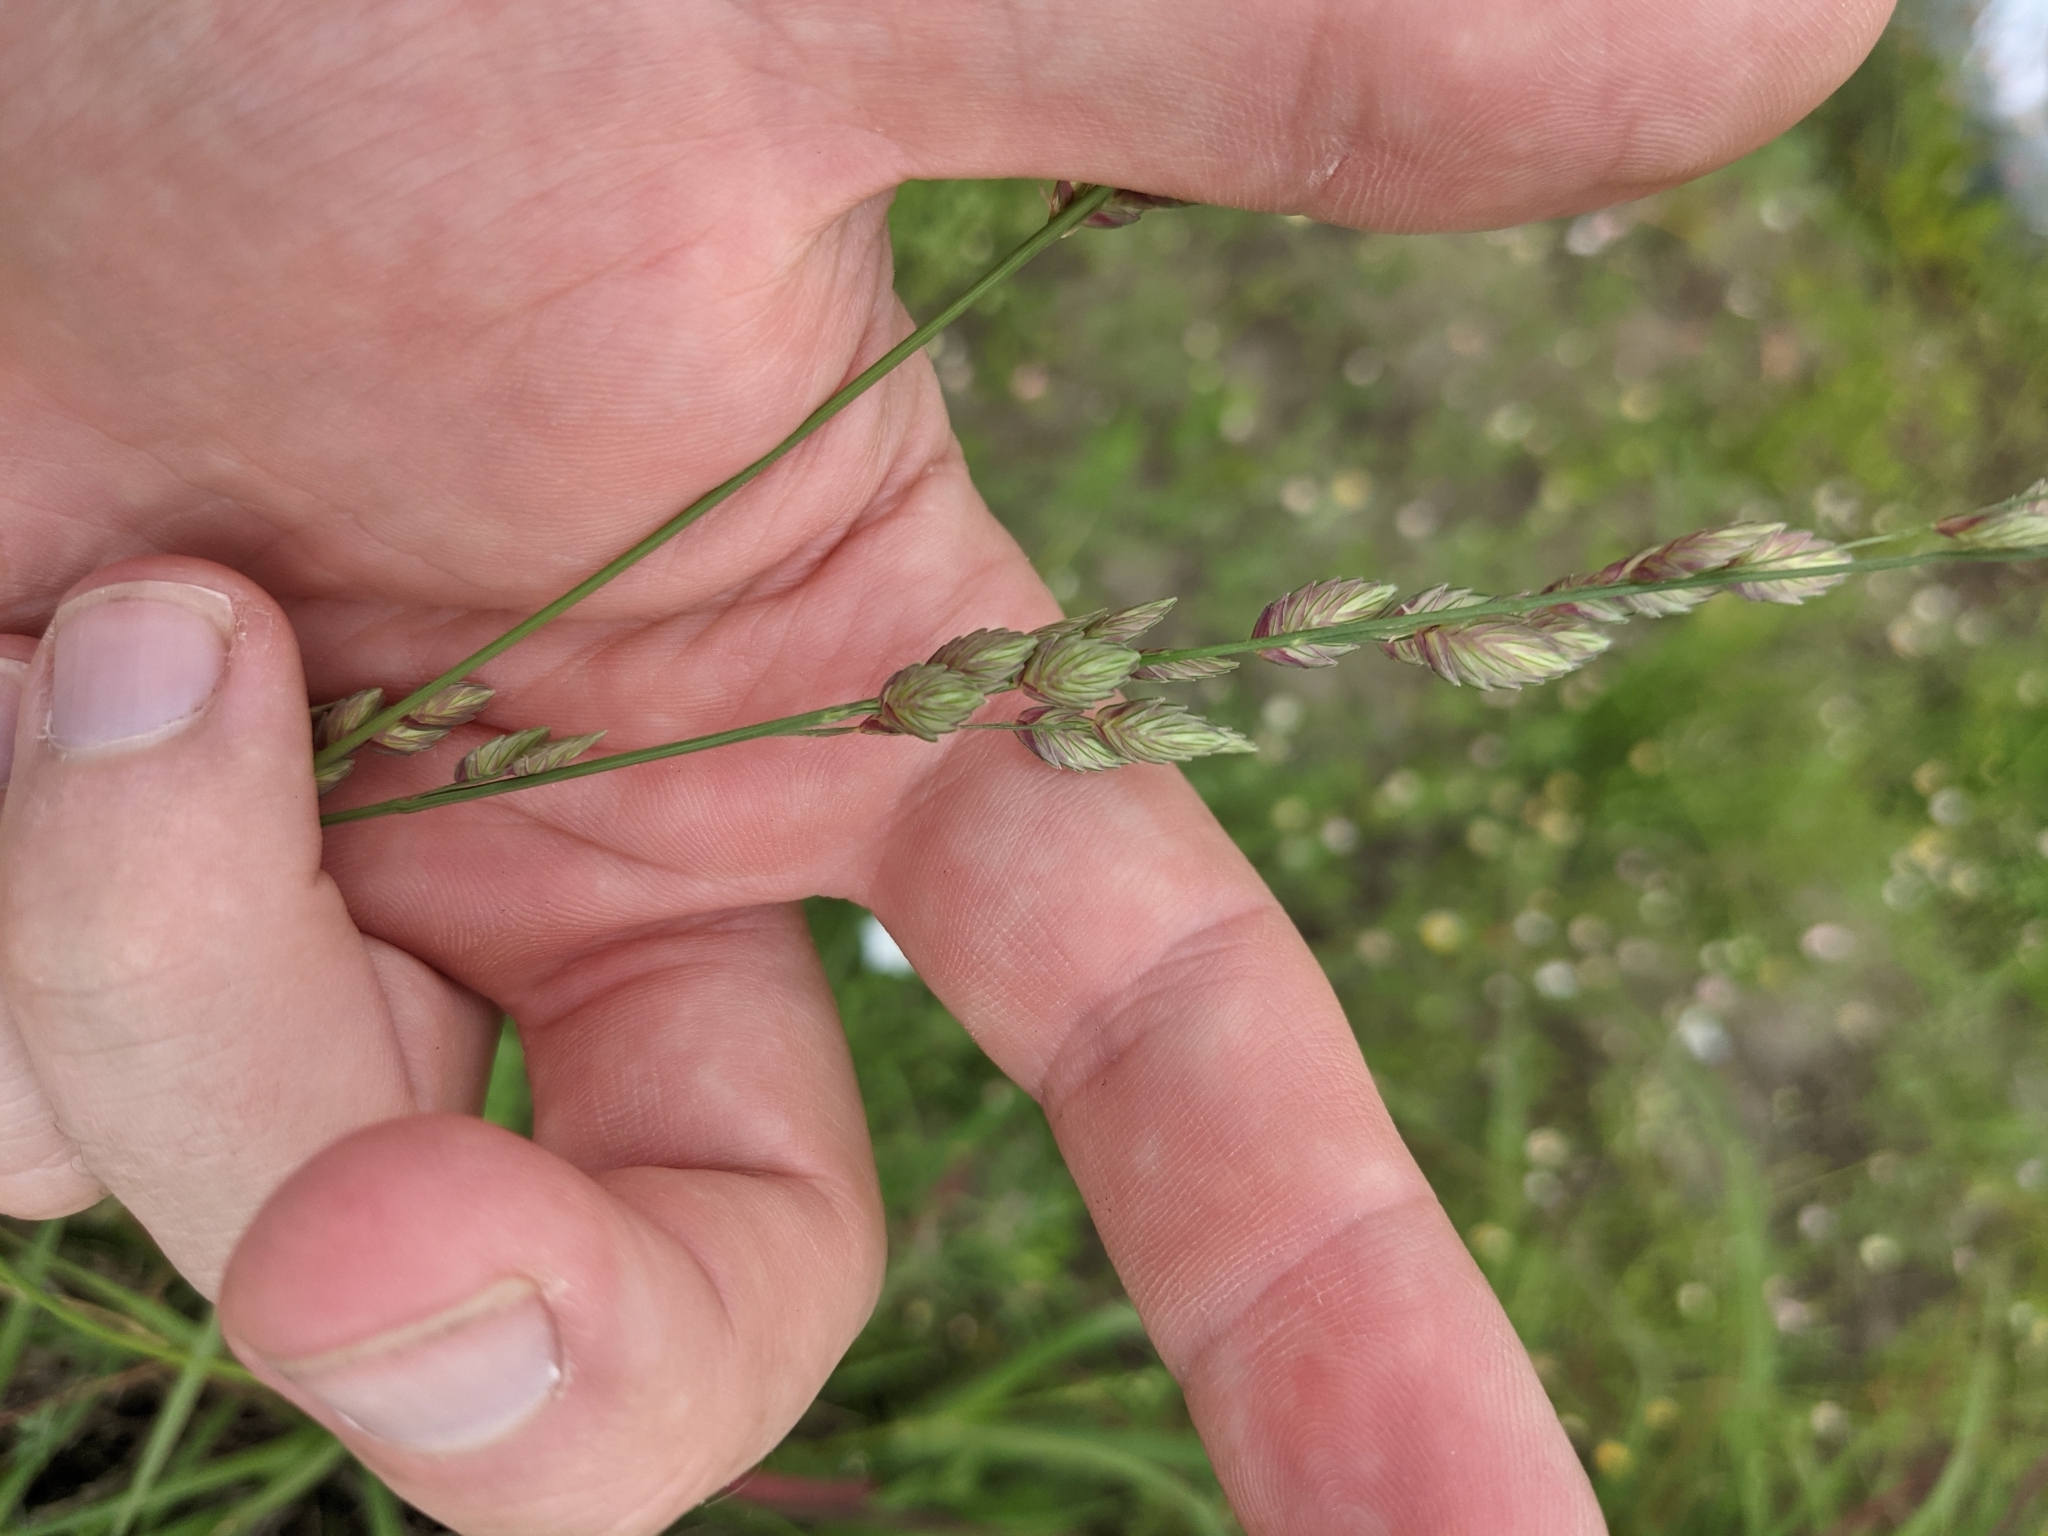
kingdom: Plantae
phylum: Tracheophyta
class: Liliopsida
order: Poales
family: Poaceae
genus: Eragrostis
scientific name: Eragrostis superba
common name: Wilman lovegrass
